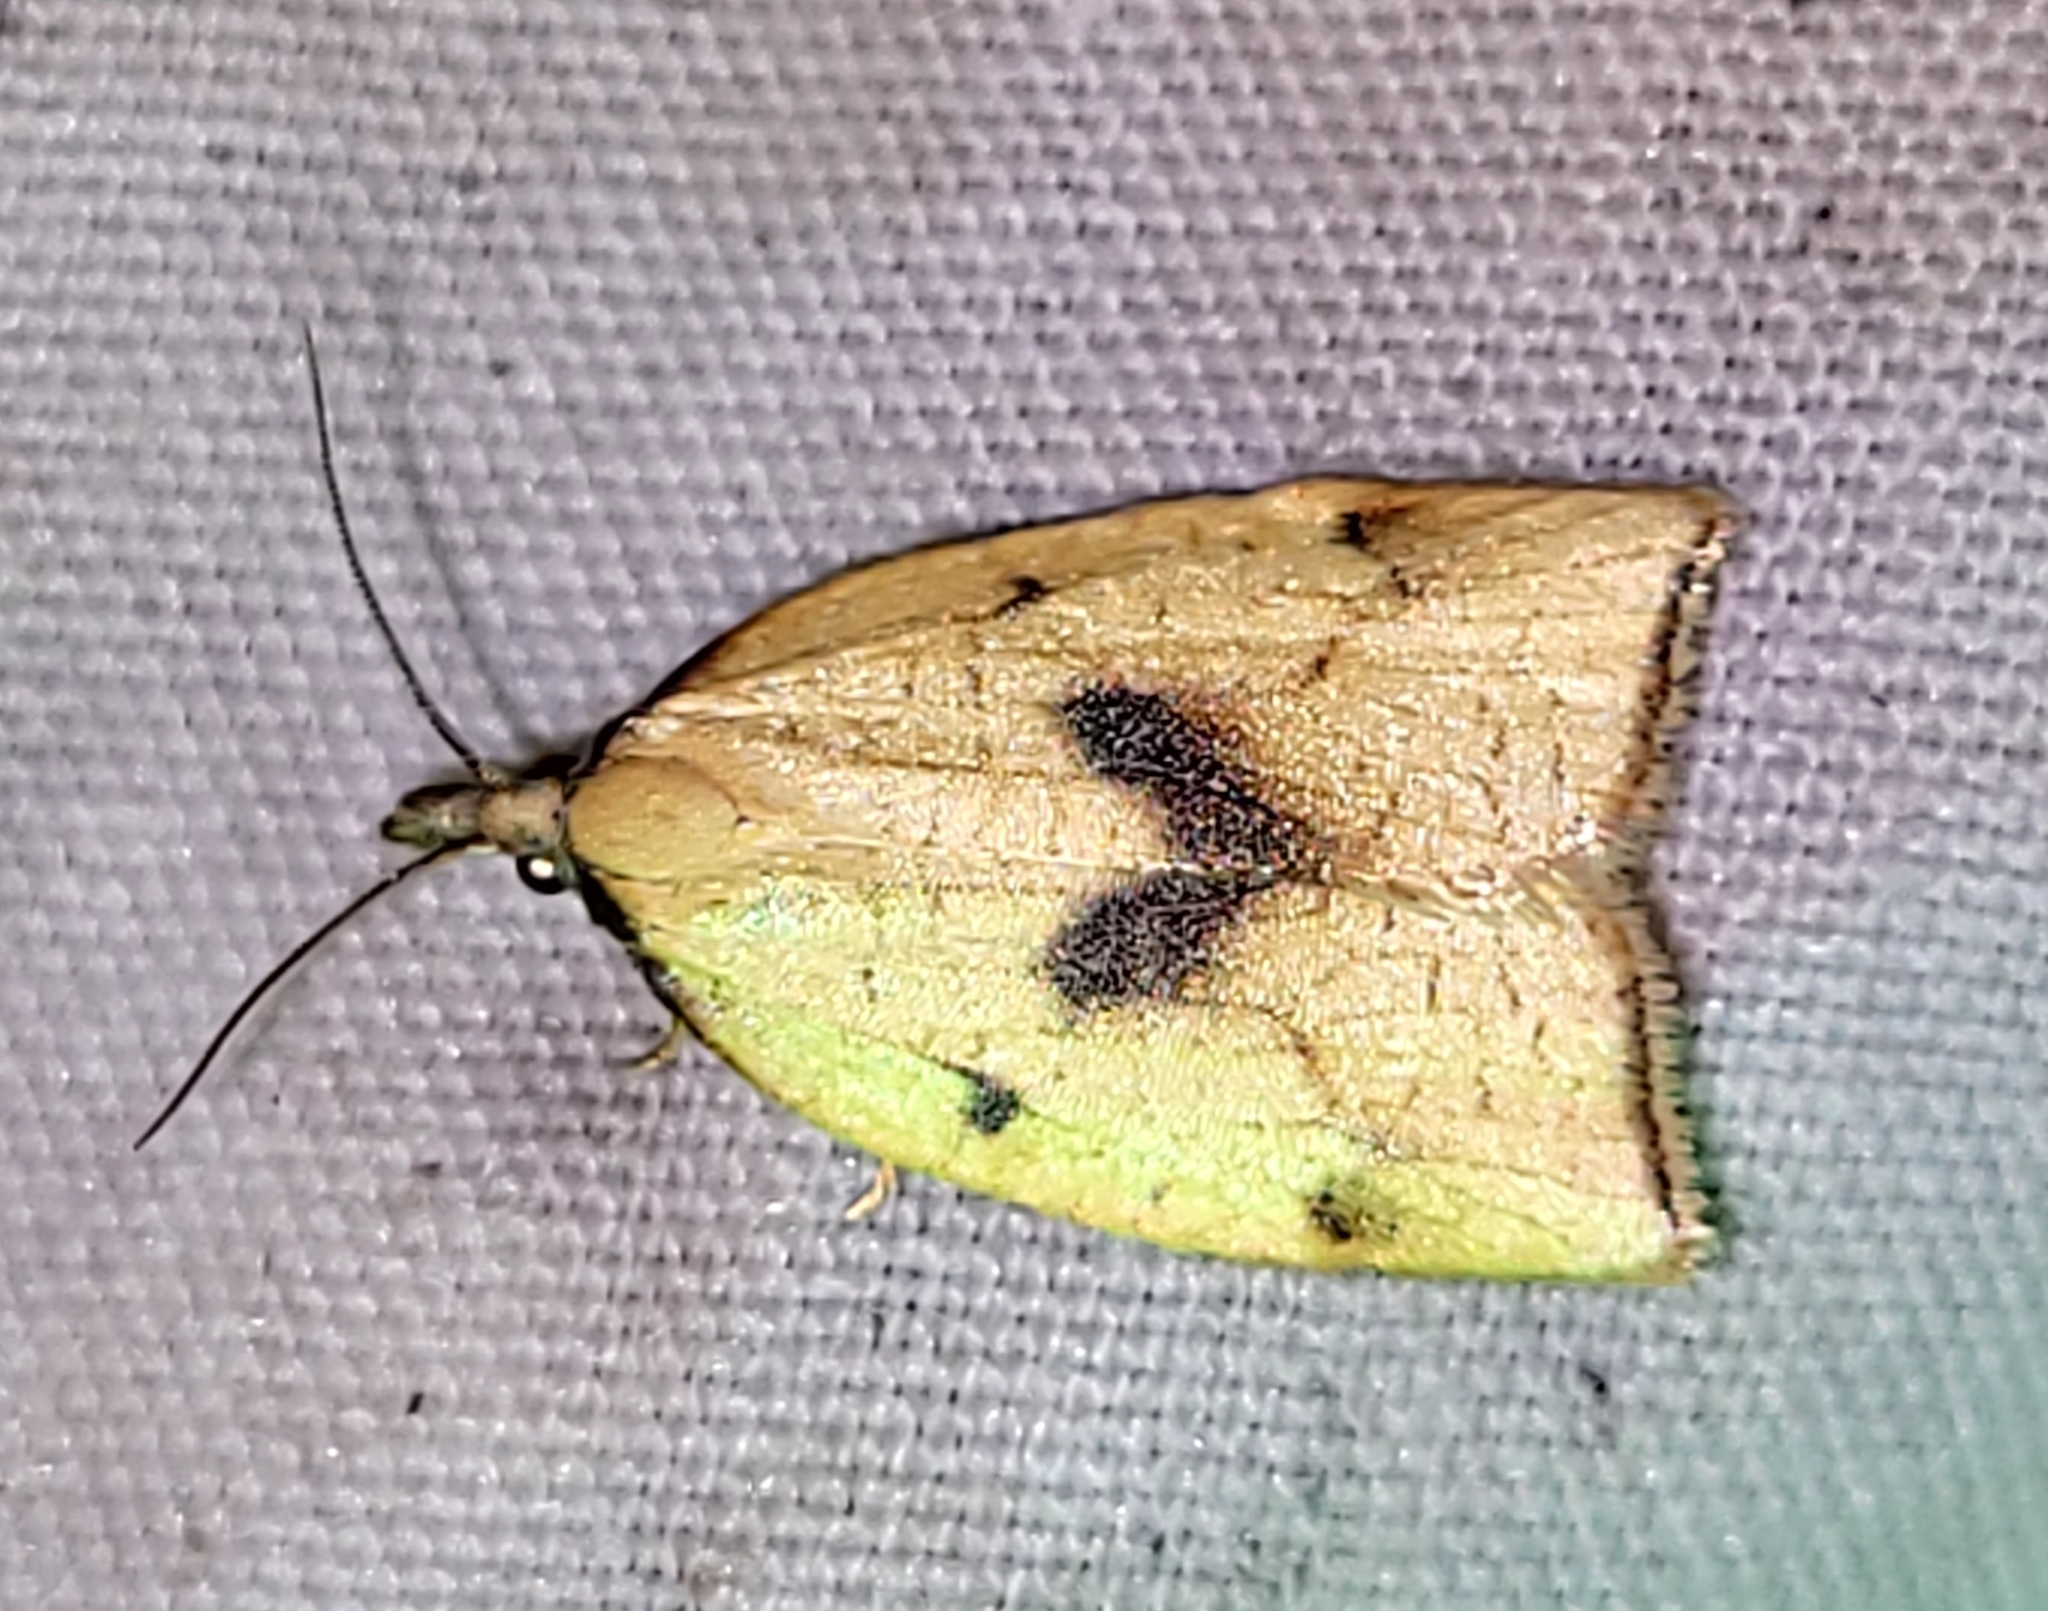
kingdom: Animalia
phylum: Arthropoda
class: Insecta
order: Lepidoptera
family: Tortricidae
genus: Sparganothis
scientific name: Sparganothis xanthoides
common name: Mosaic sparganothis moth
